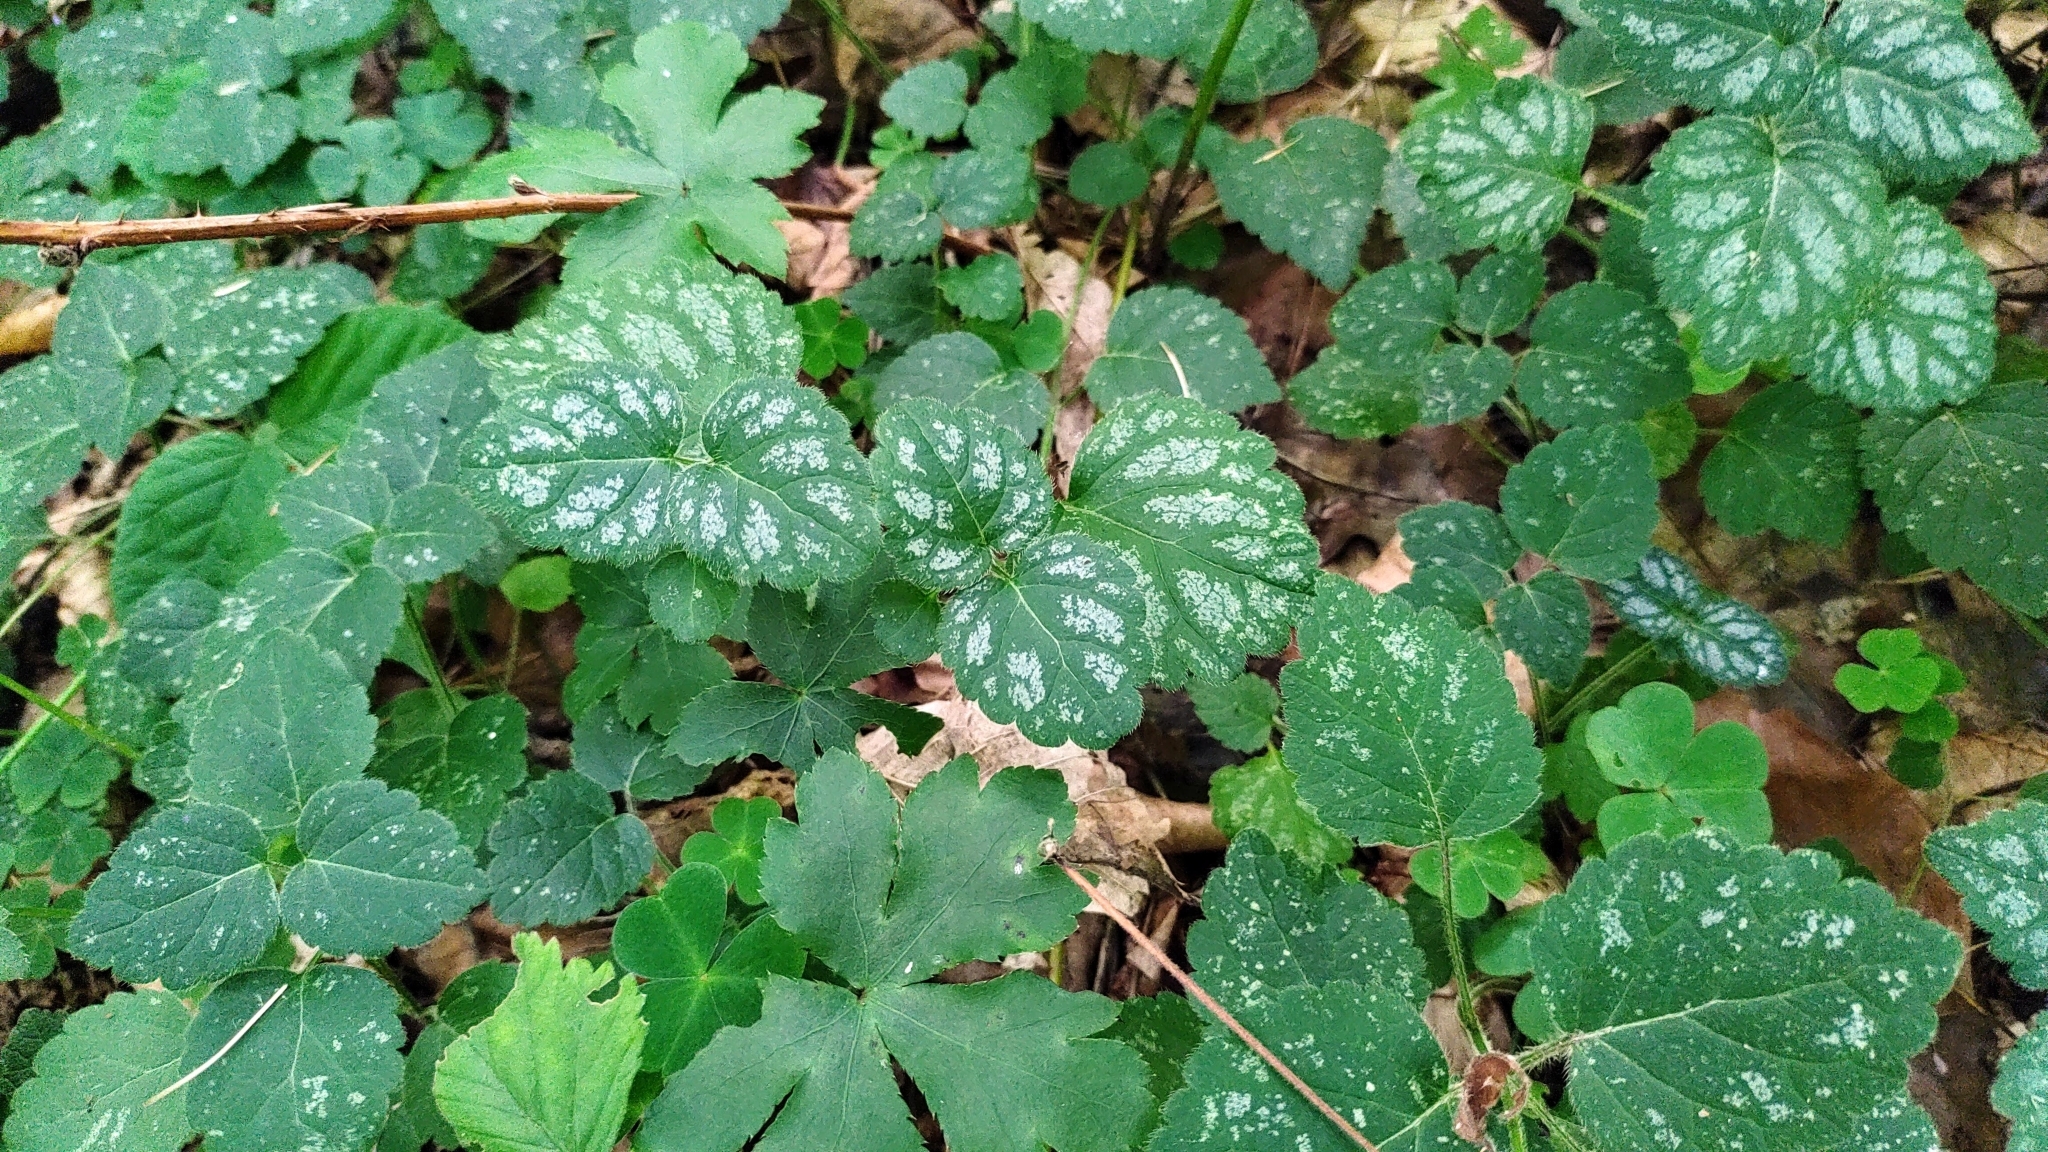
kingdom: Plantae
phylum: Tracheophyta
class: Magnoliopsida
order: Lamiales
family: Lamiaceae
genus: Lamium
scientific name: Lamium galeobdolon
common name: Yellow archangel
